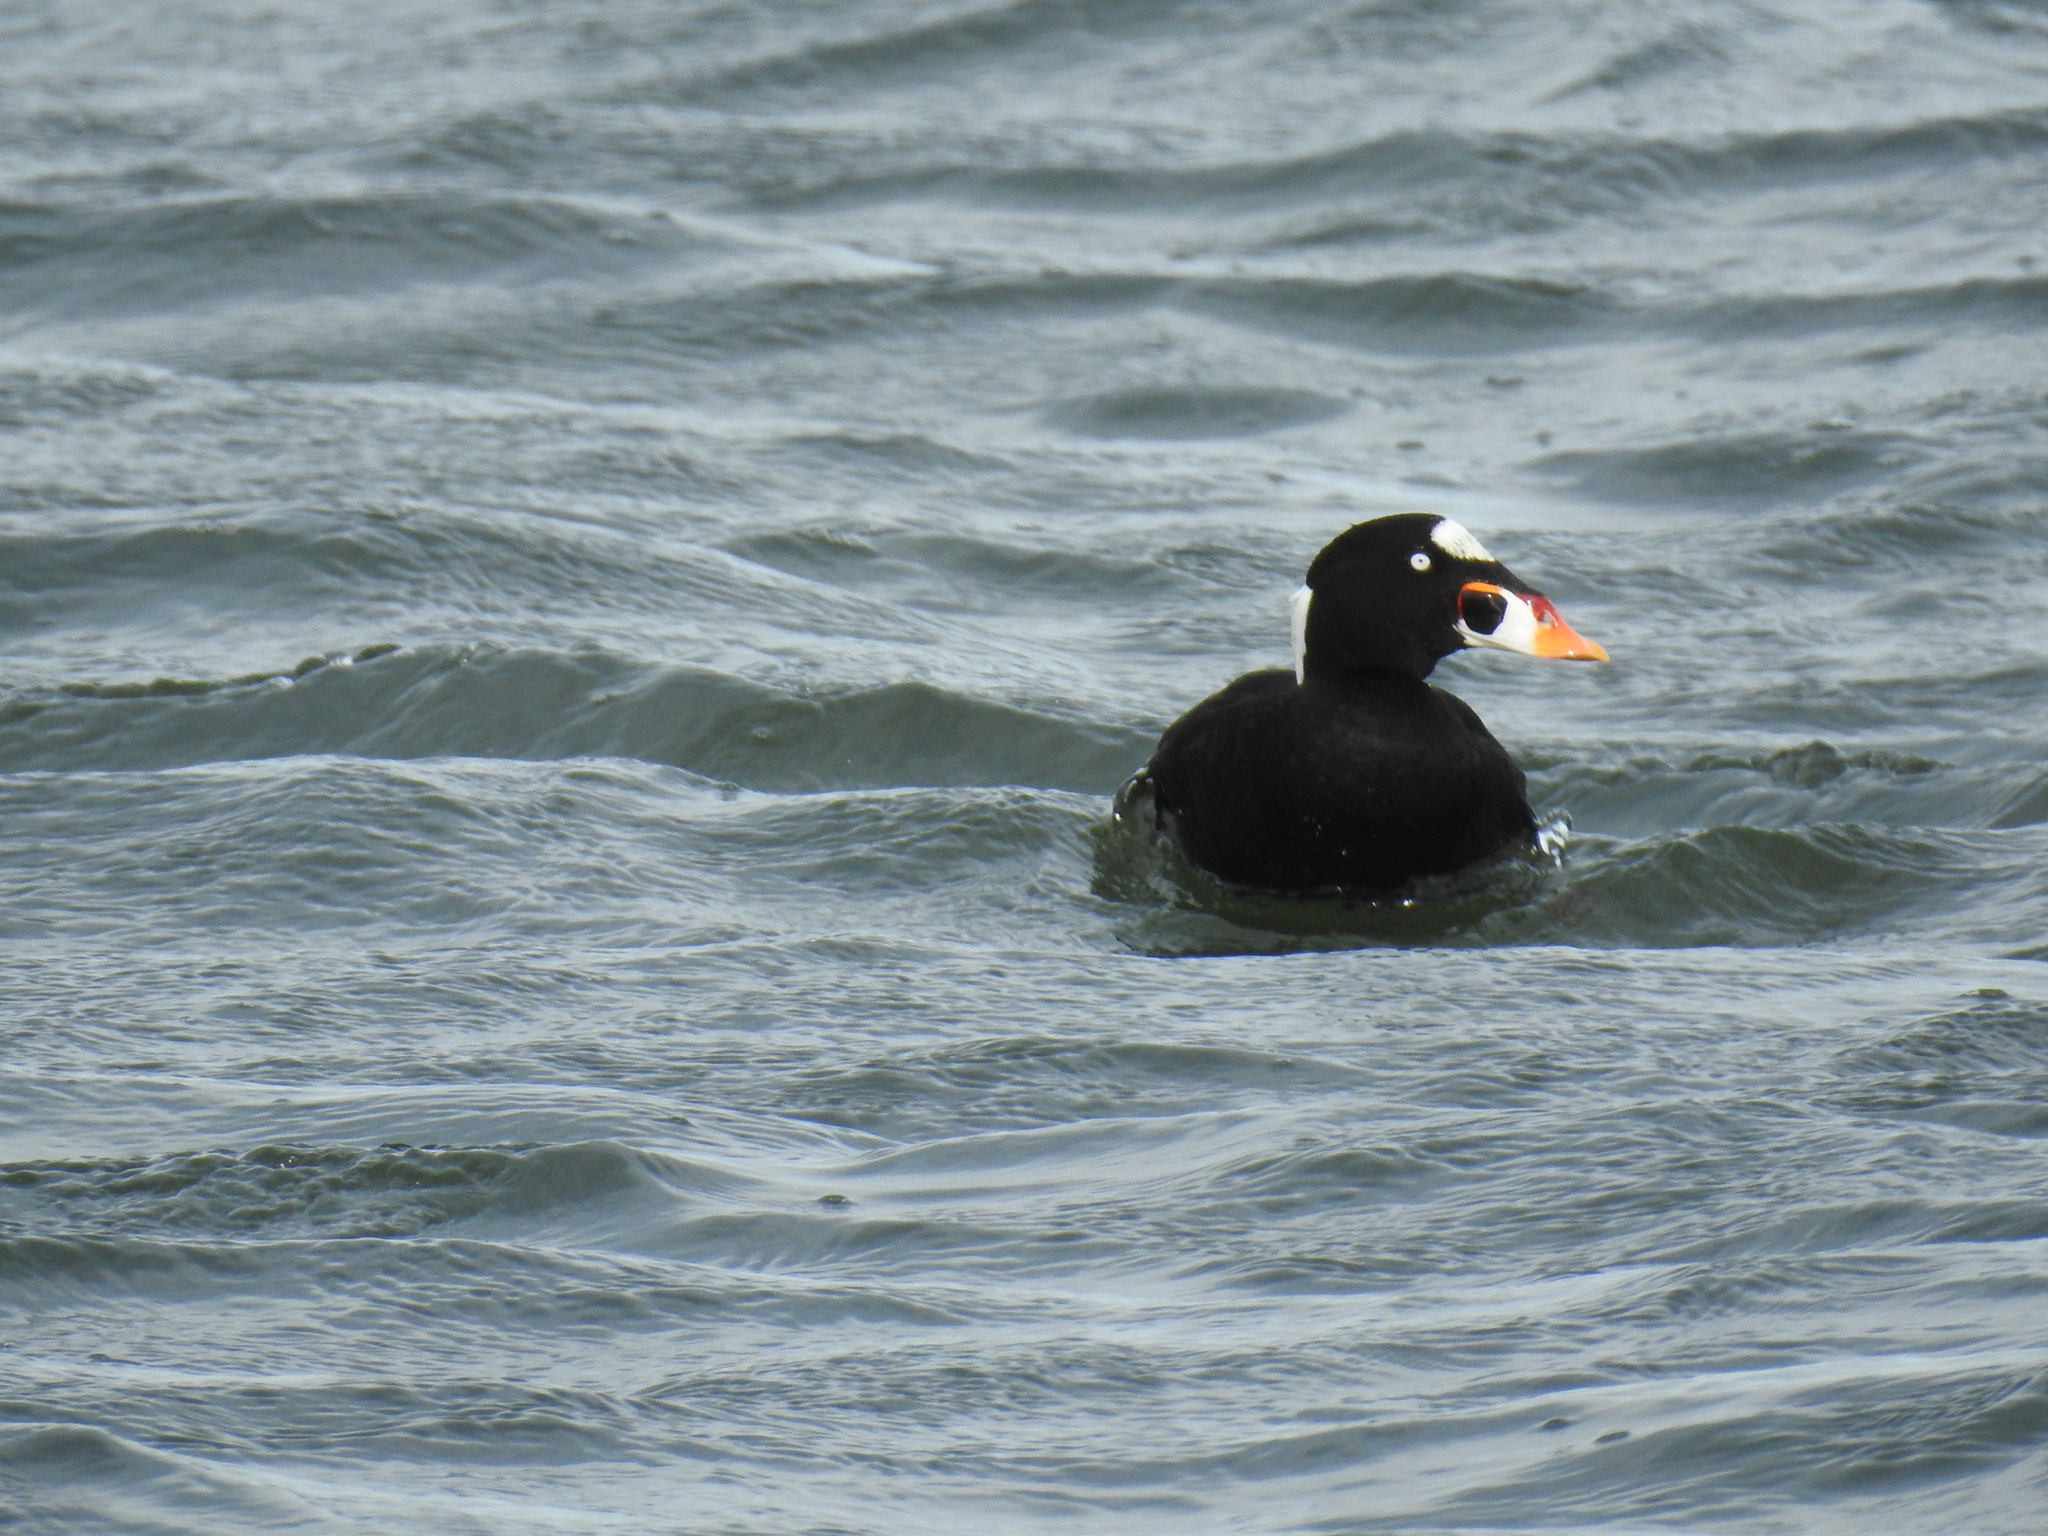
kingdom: Animalia
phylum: Chordata
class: Aves
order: Anseriformes
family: Anatidae
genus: Melanitta
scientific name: Melanitta perspicillata
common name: Surf scoter
